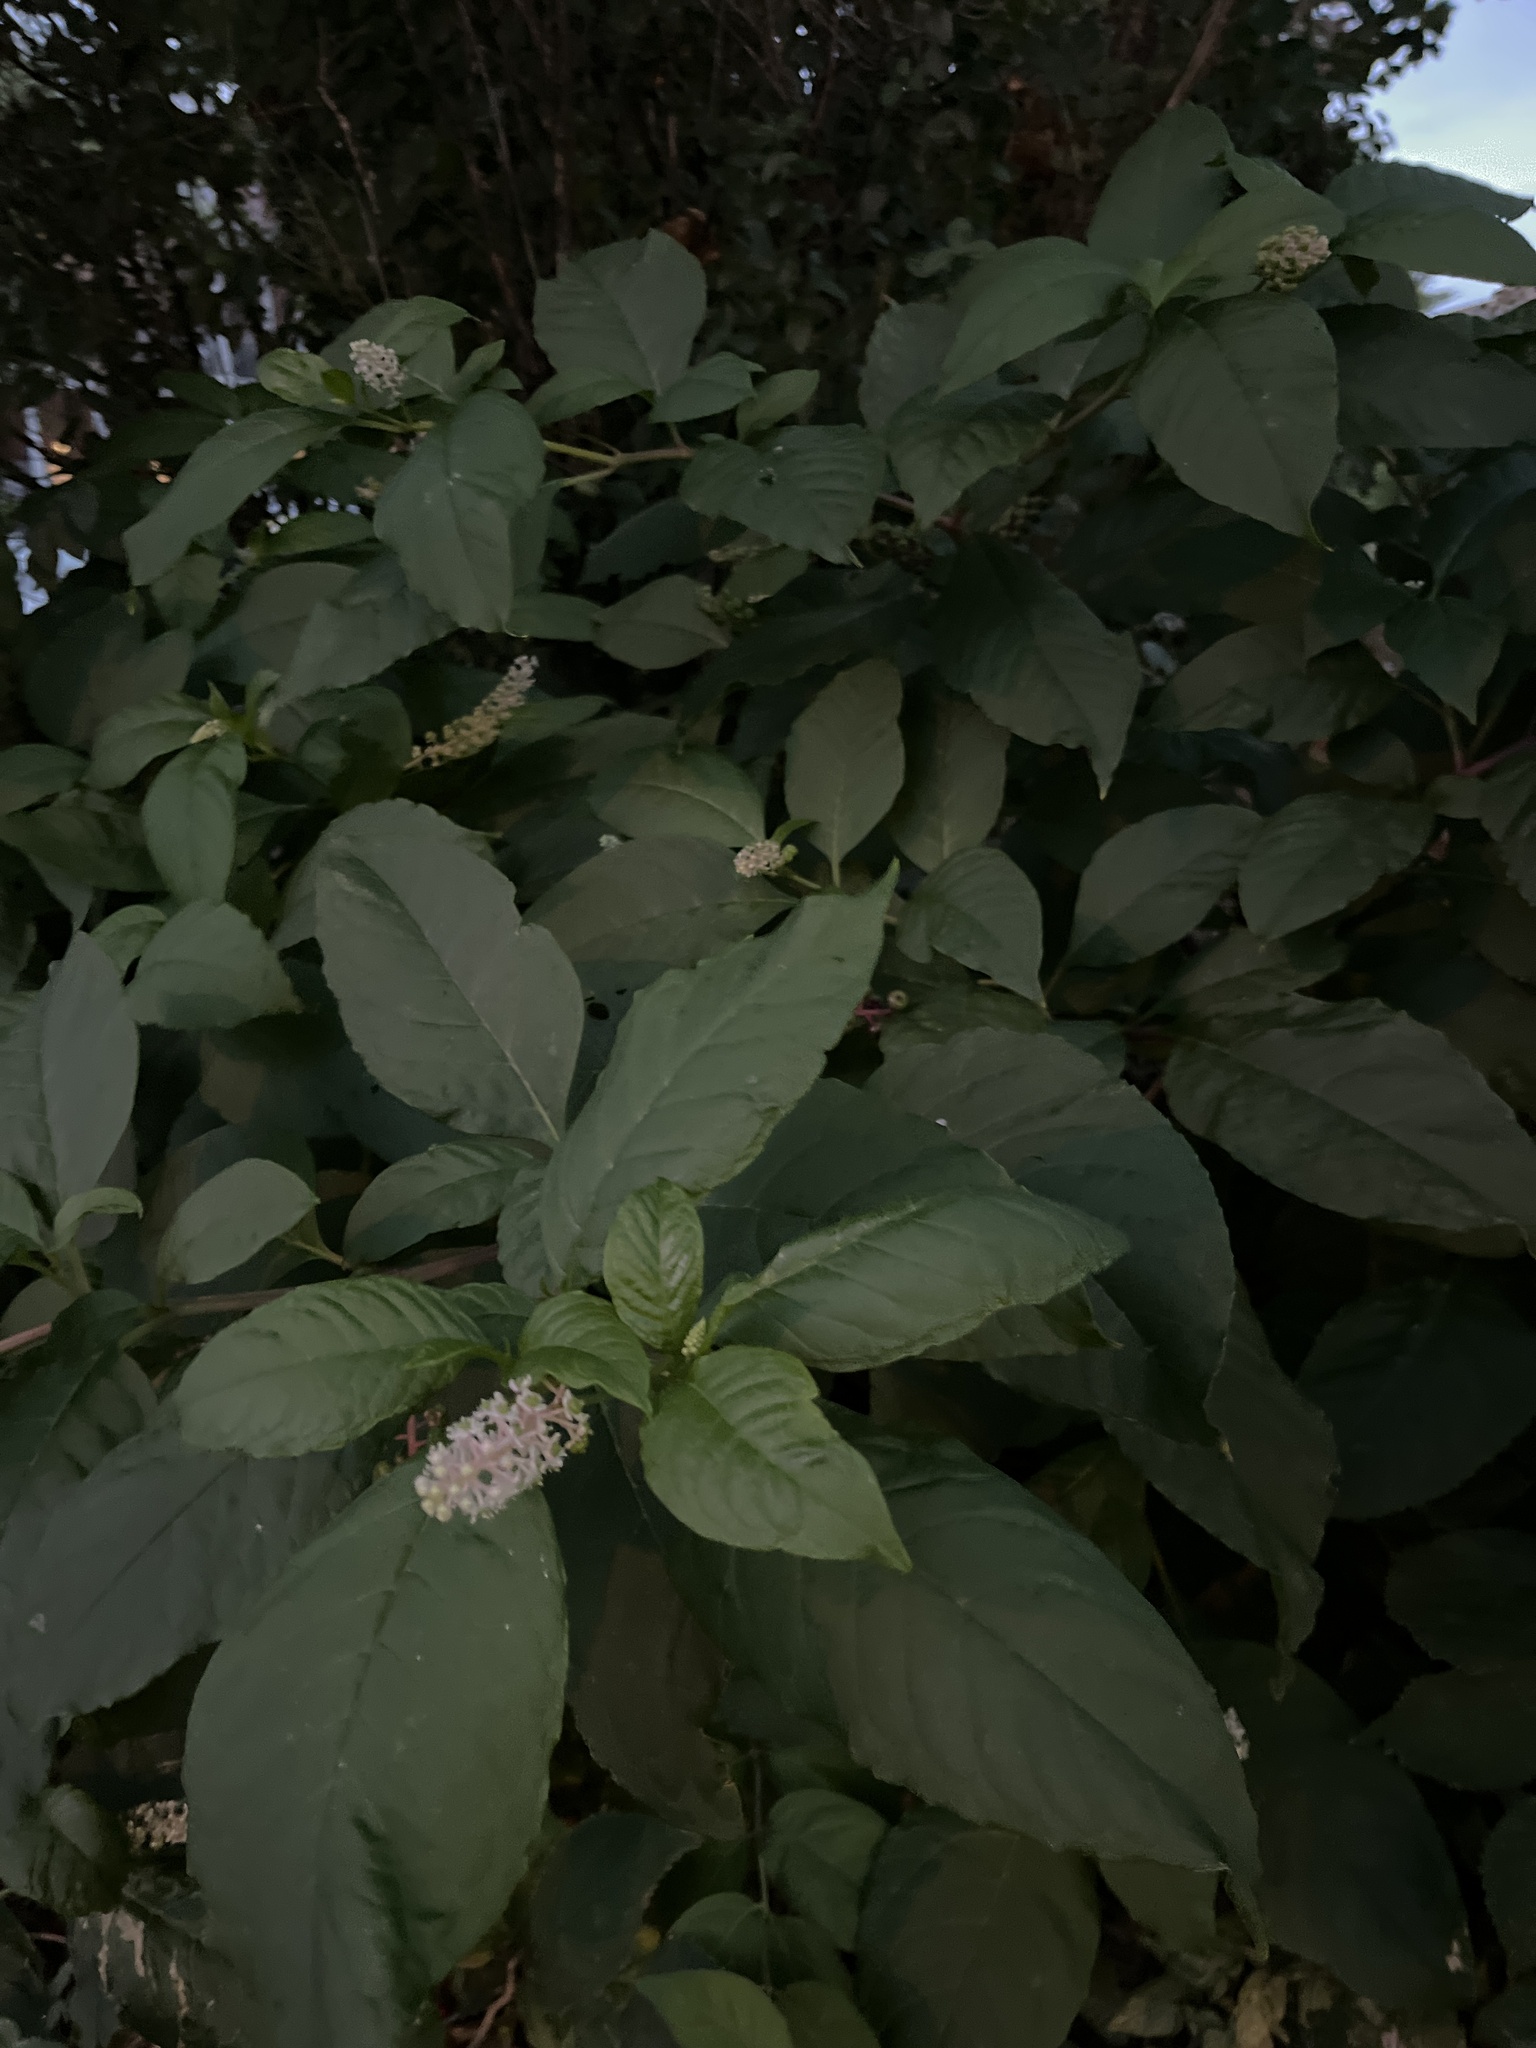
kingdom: Plantae
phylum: Tracheophyta
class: Magnoliopsida
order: Caryophyllales
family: Phytolaccaceae
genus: Phytolacca
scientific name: Phytolacca americana
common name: American pokeweed
